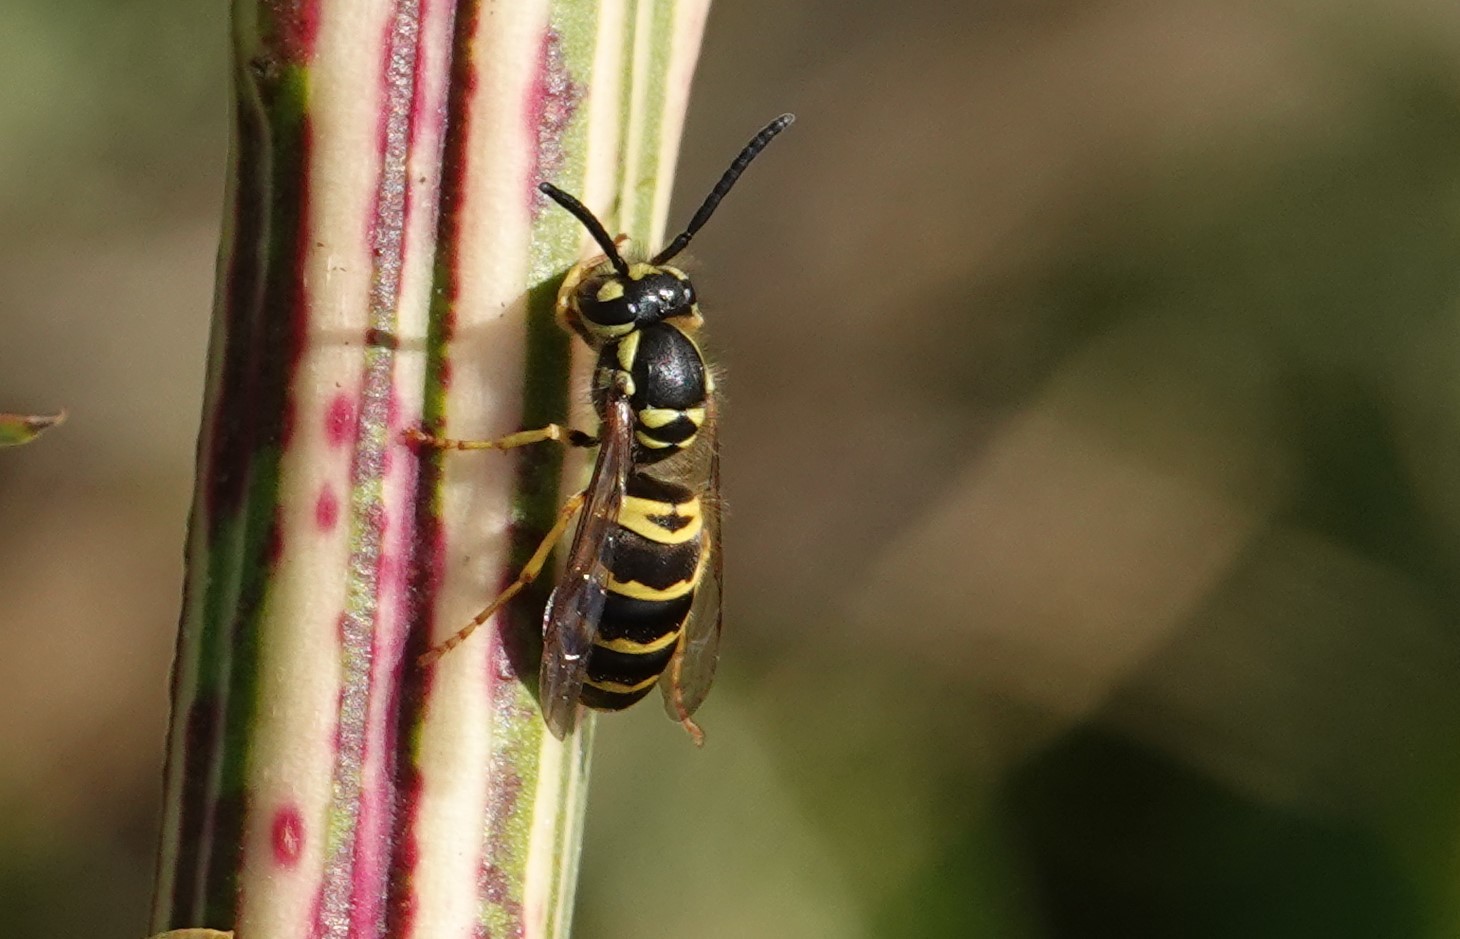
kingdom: Animalia
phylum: Arthropoda
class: Insecta
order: Hymenoptera
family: Vespidae
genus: Vespula
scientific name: Vespula maculifrons
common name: Eastern yellowjacket
